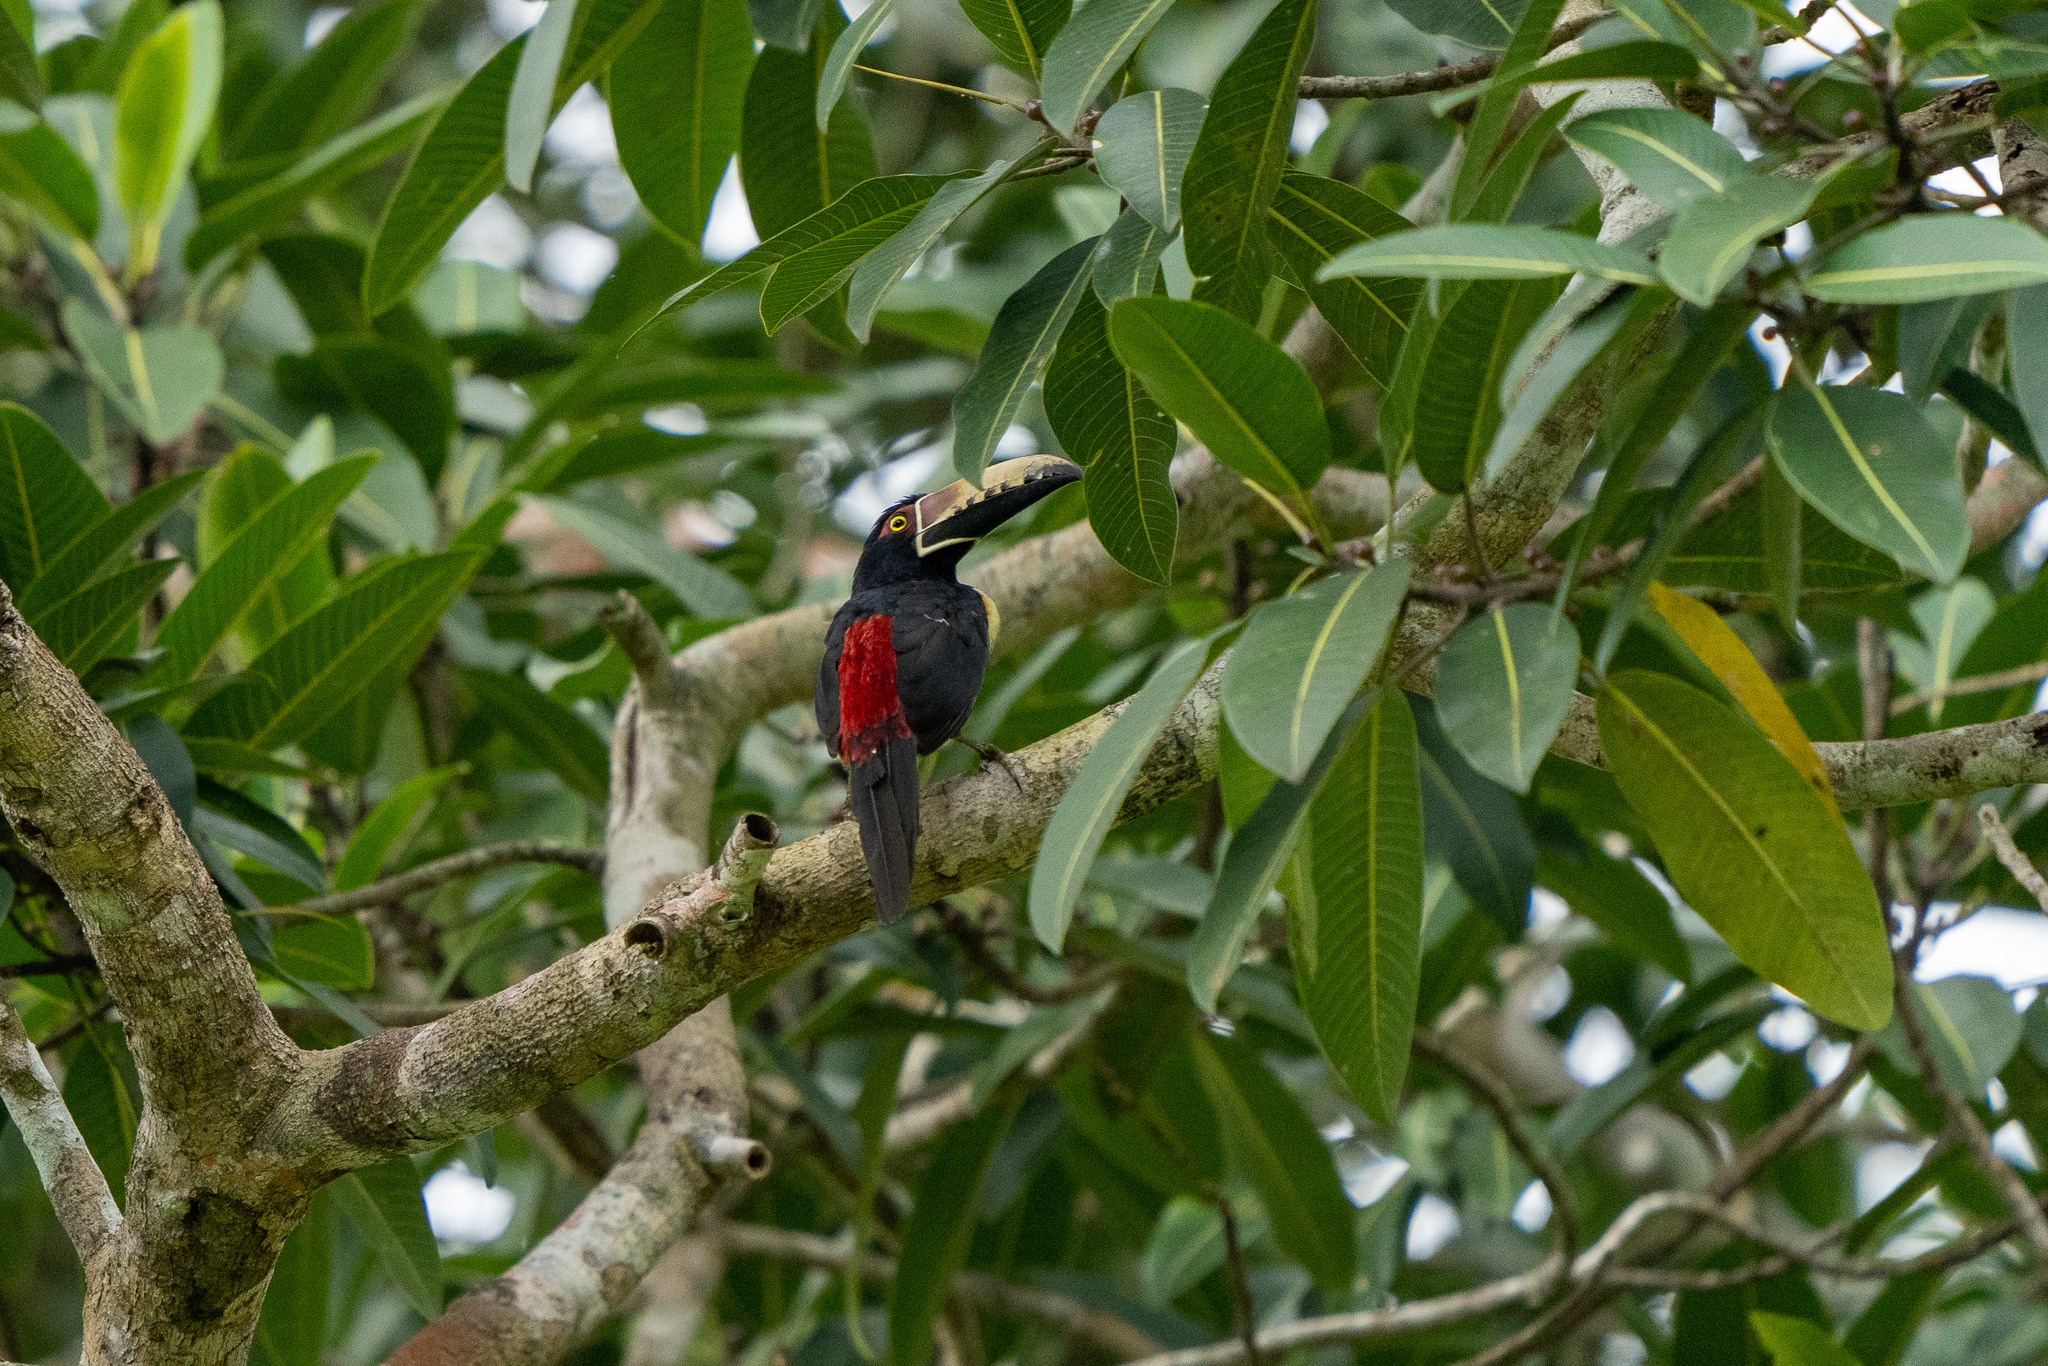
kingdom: Animalia
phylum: Chordata
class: Aves
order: Piciformes
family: Ramphastidae
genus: Pteroglossus
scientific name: Pteroglossus torquatus
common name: Collared aracari
